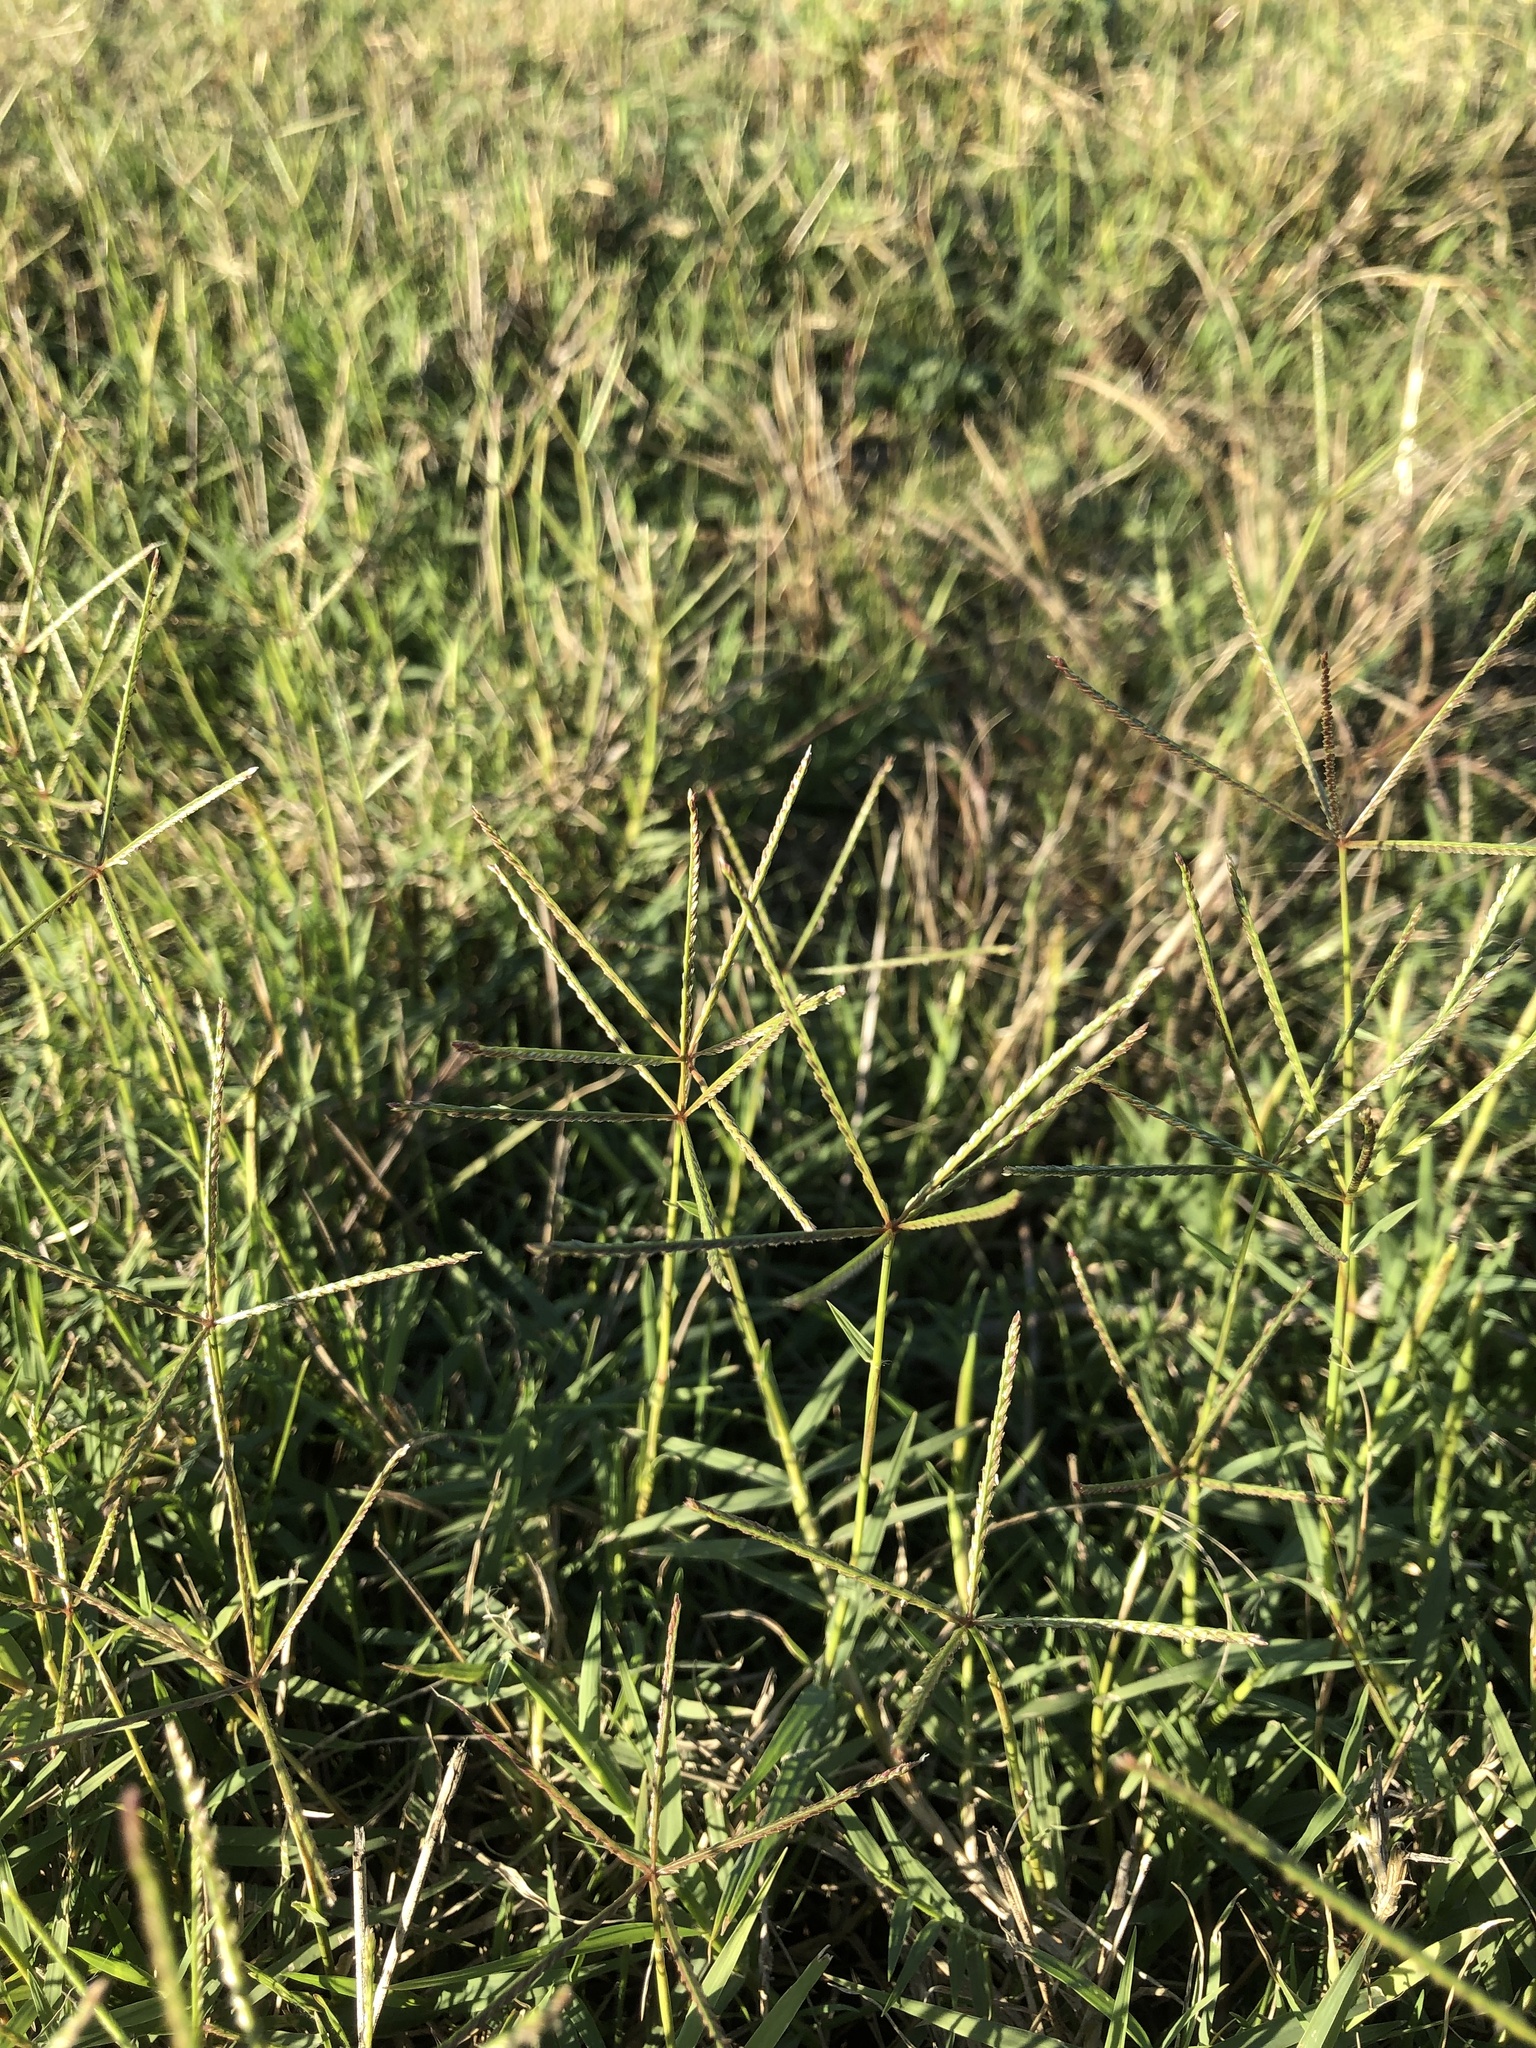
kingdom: Plantae
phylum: Tracheophyta
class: Liliopsida
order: Poales
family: Poaceae
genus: Cynodon
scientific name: Cynodon dactylon
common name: Bermuda grass
